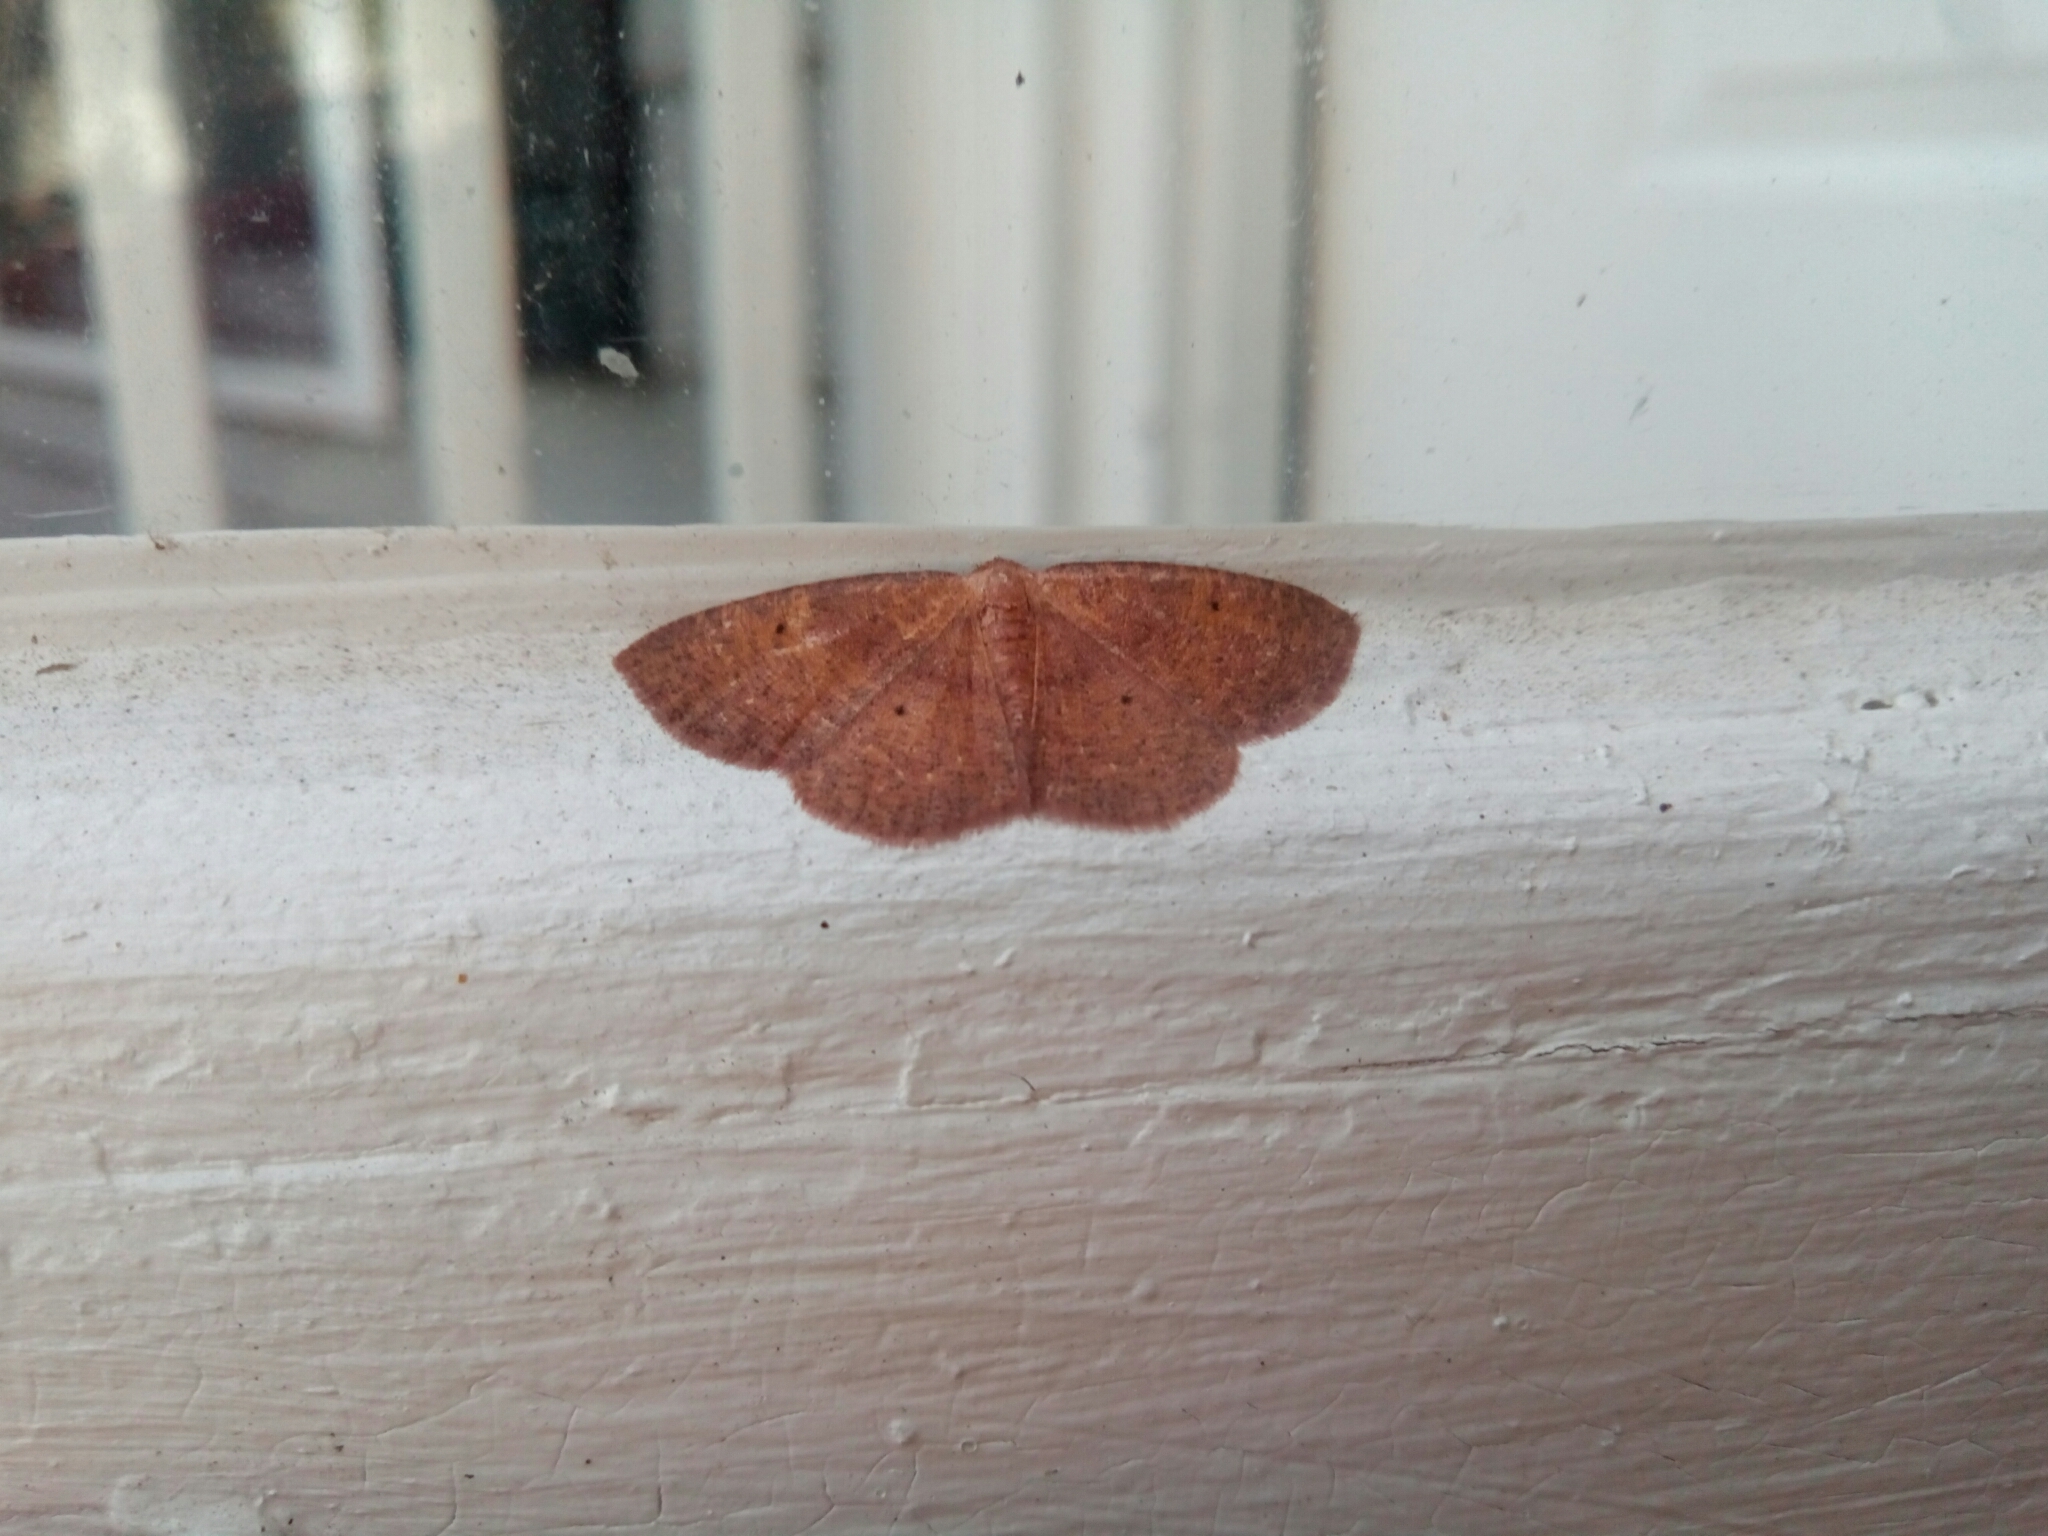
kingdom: Animalia
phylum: Arthropoda
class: Insecta
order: Lepidoptera
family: Geometridae
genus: Ilexia
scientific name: Ilexia intractata
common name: Black-dotted ruddy moth
